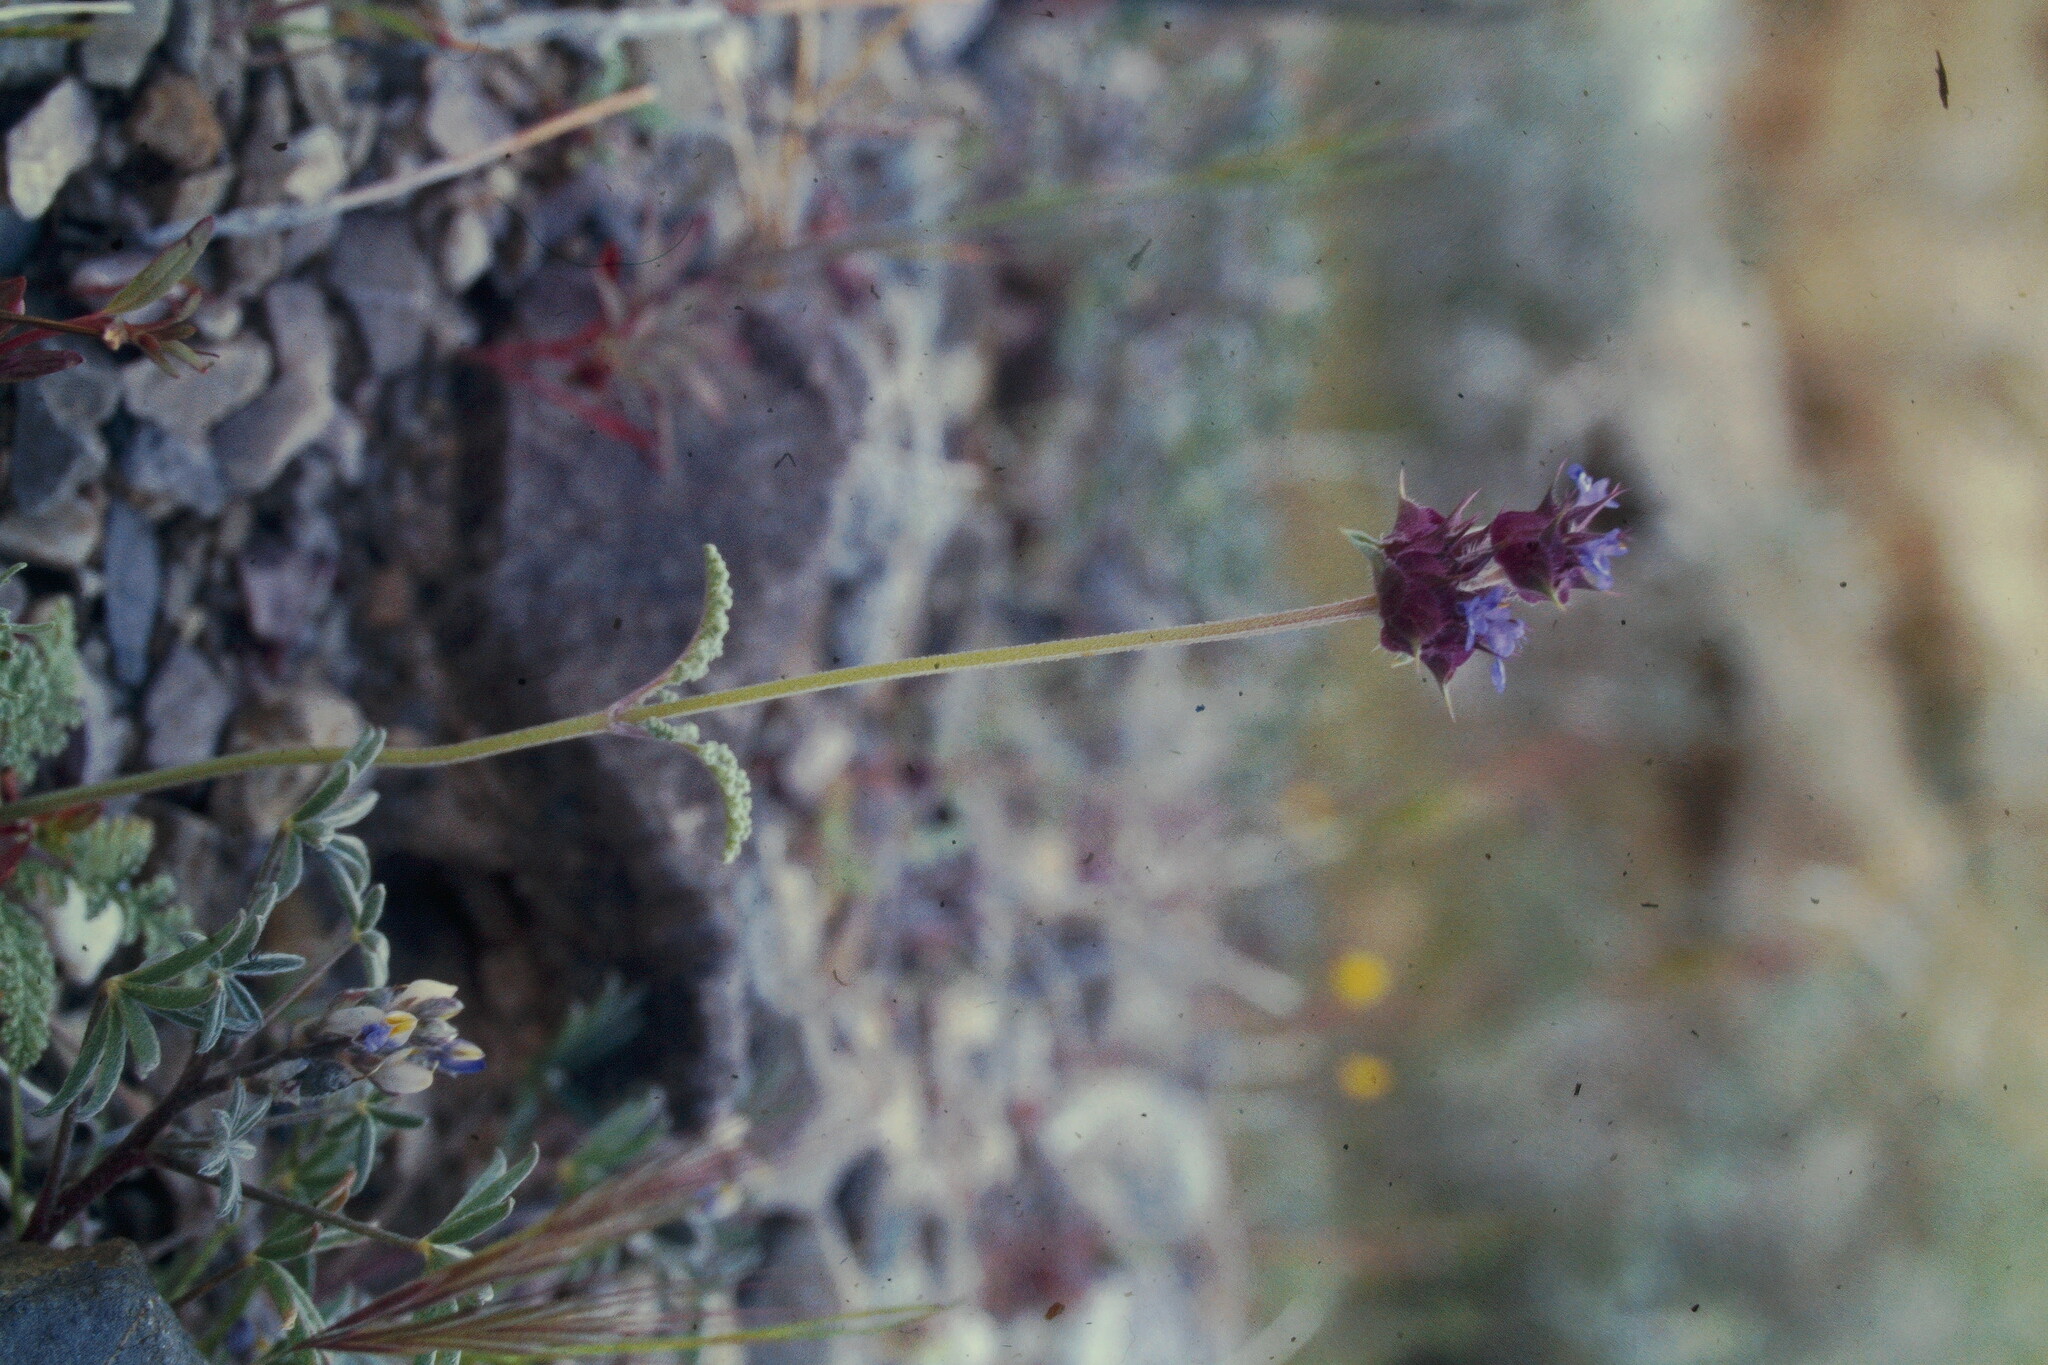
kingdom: Plantae
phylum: Tracheophyta
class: Magnoliopsida
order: Lamiales
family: Lamiaceae
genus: Salvia
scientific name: Salvia columbariae
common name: Chia
